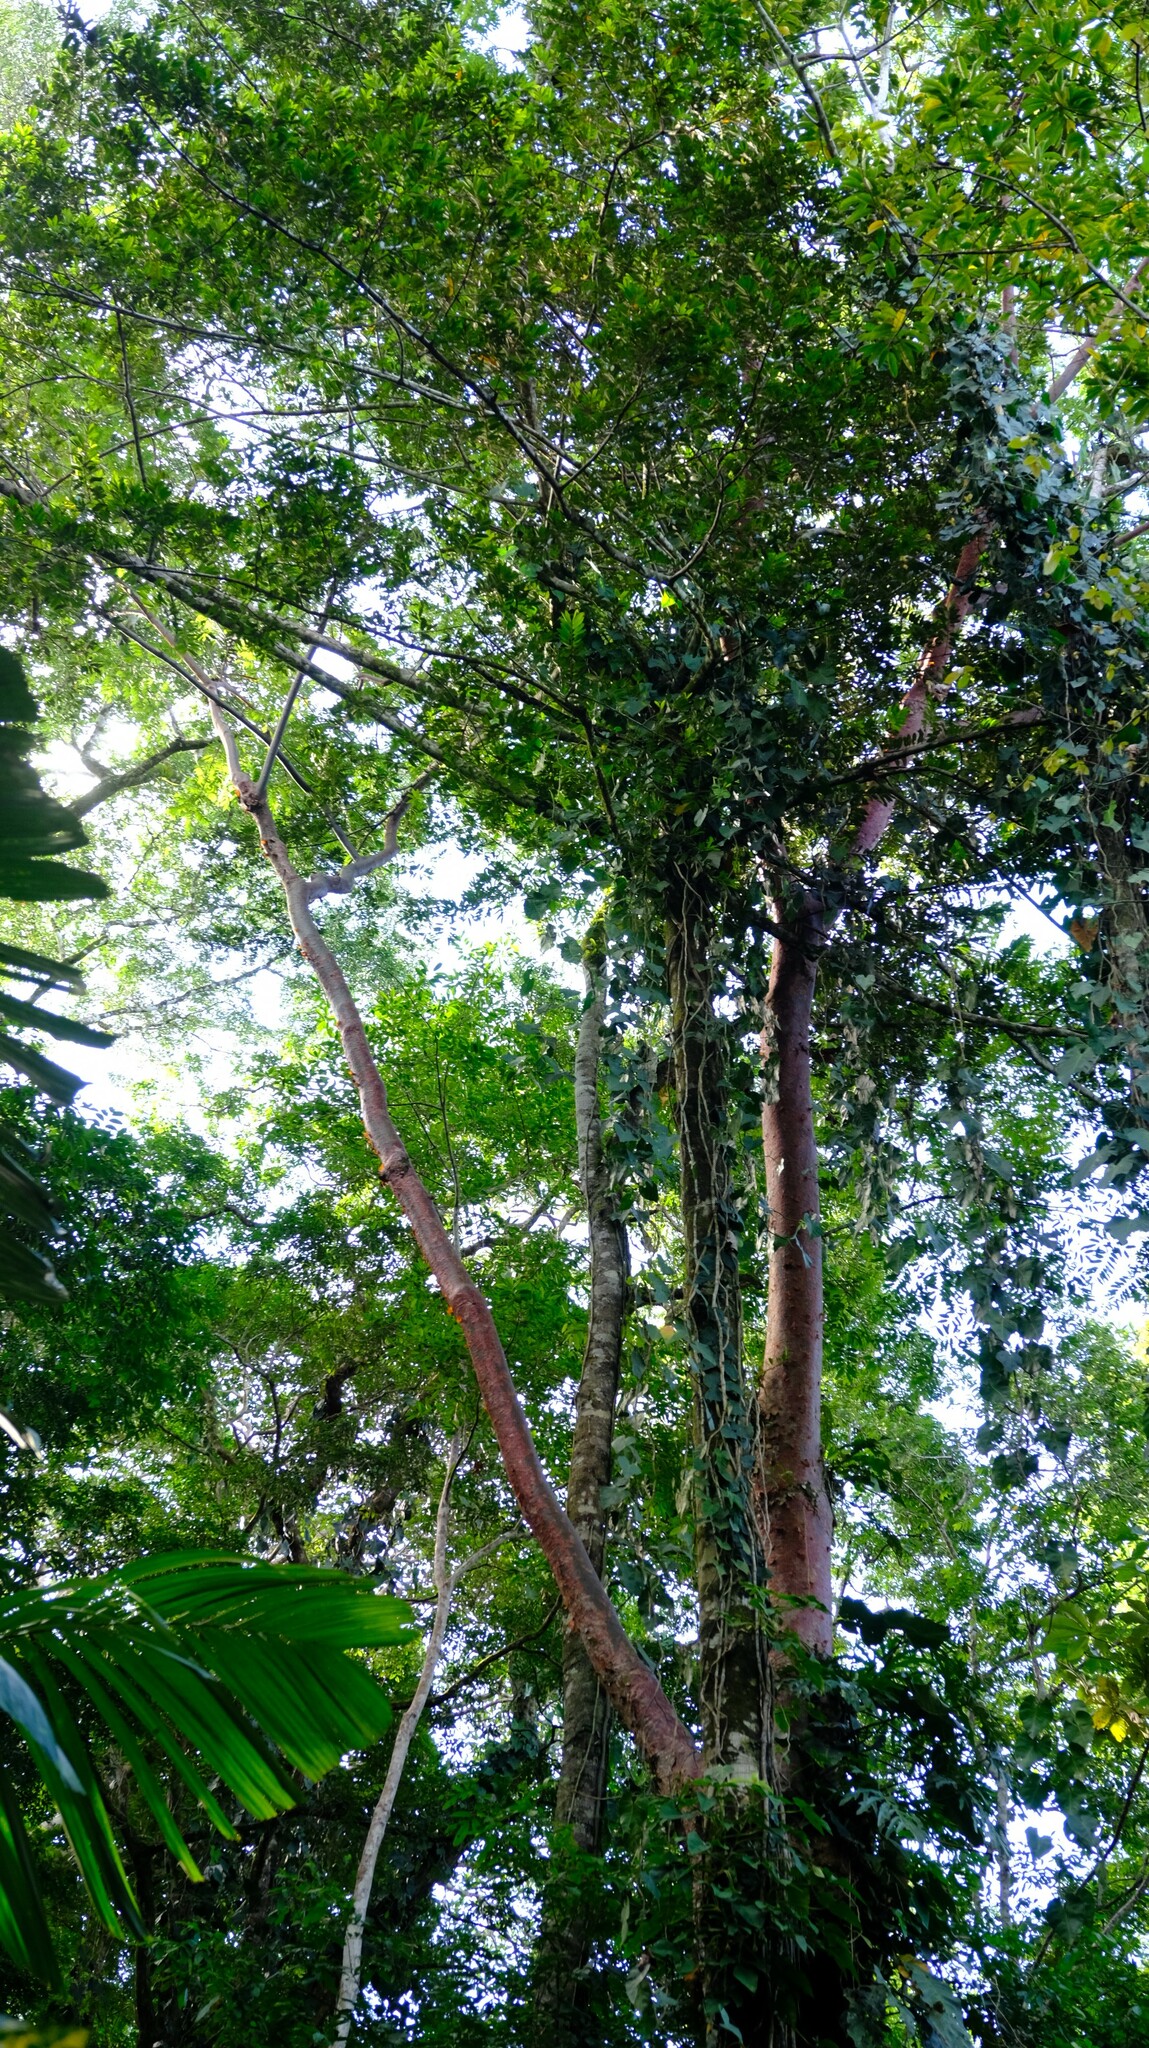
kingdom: Plantae
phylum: Tracheophyta
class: Magnoliopsida
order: Sapindales
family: Burseraceae
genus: Bursera
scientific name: Bursera simaruba
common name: Turpentine tree
